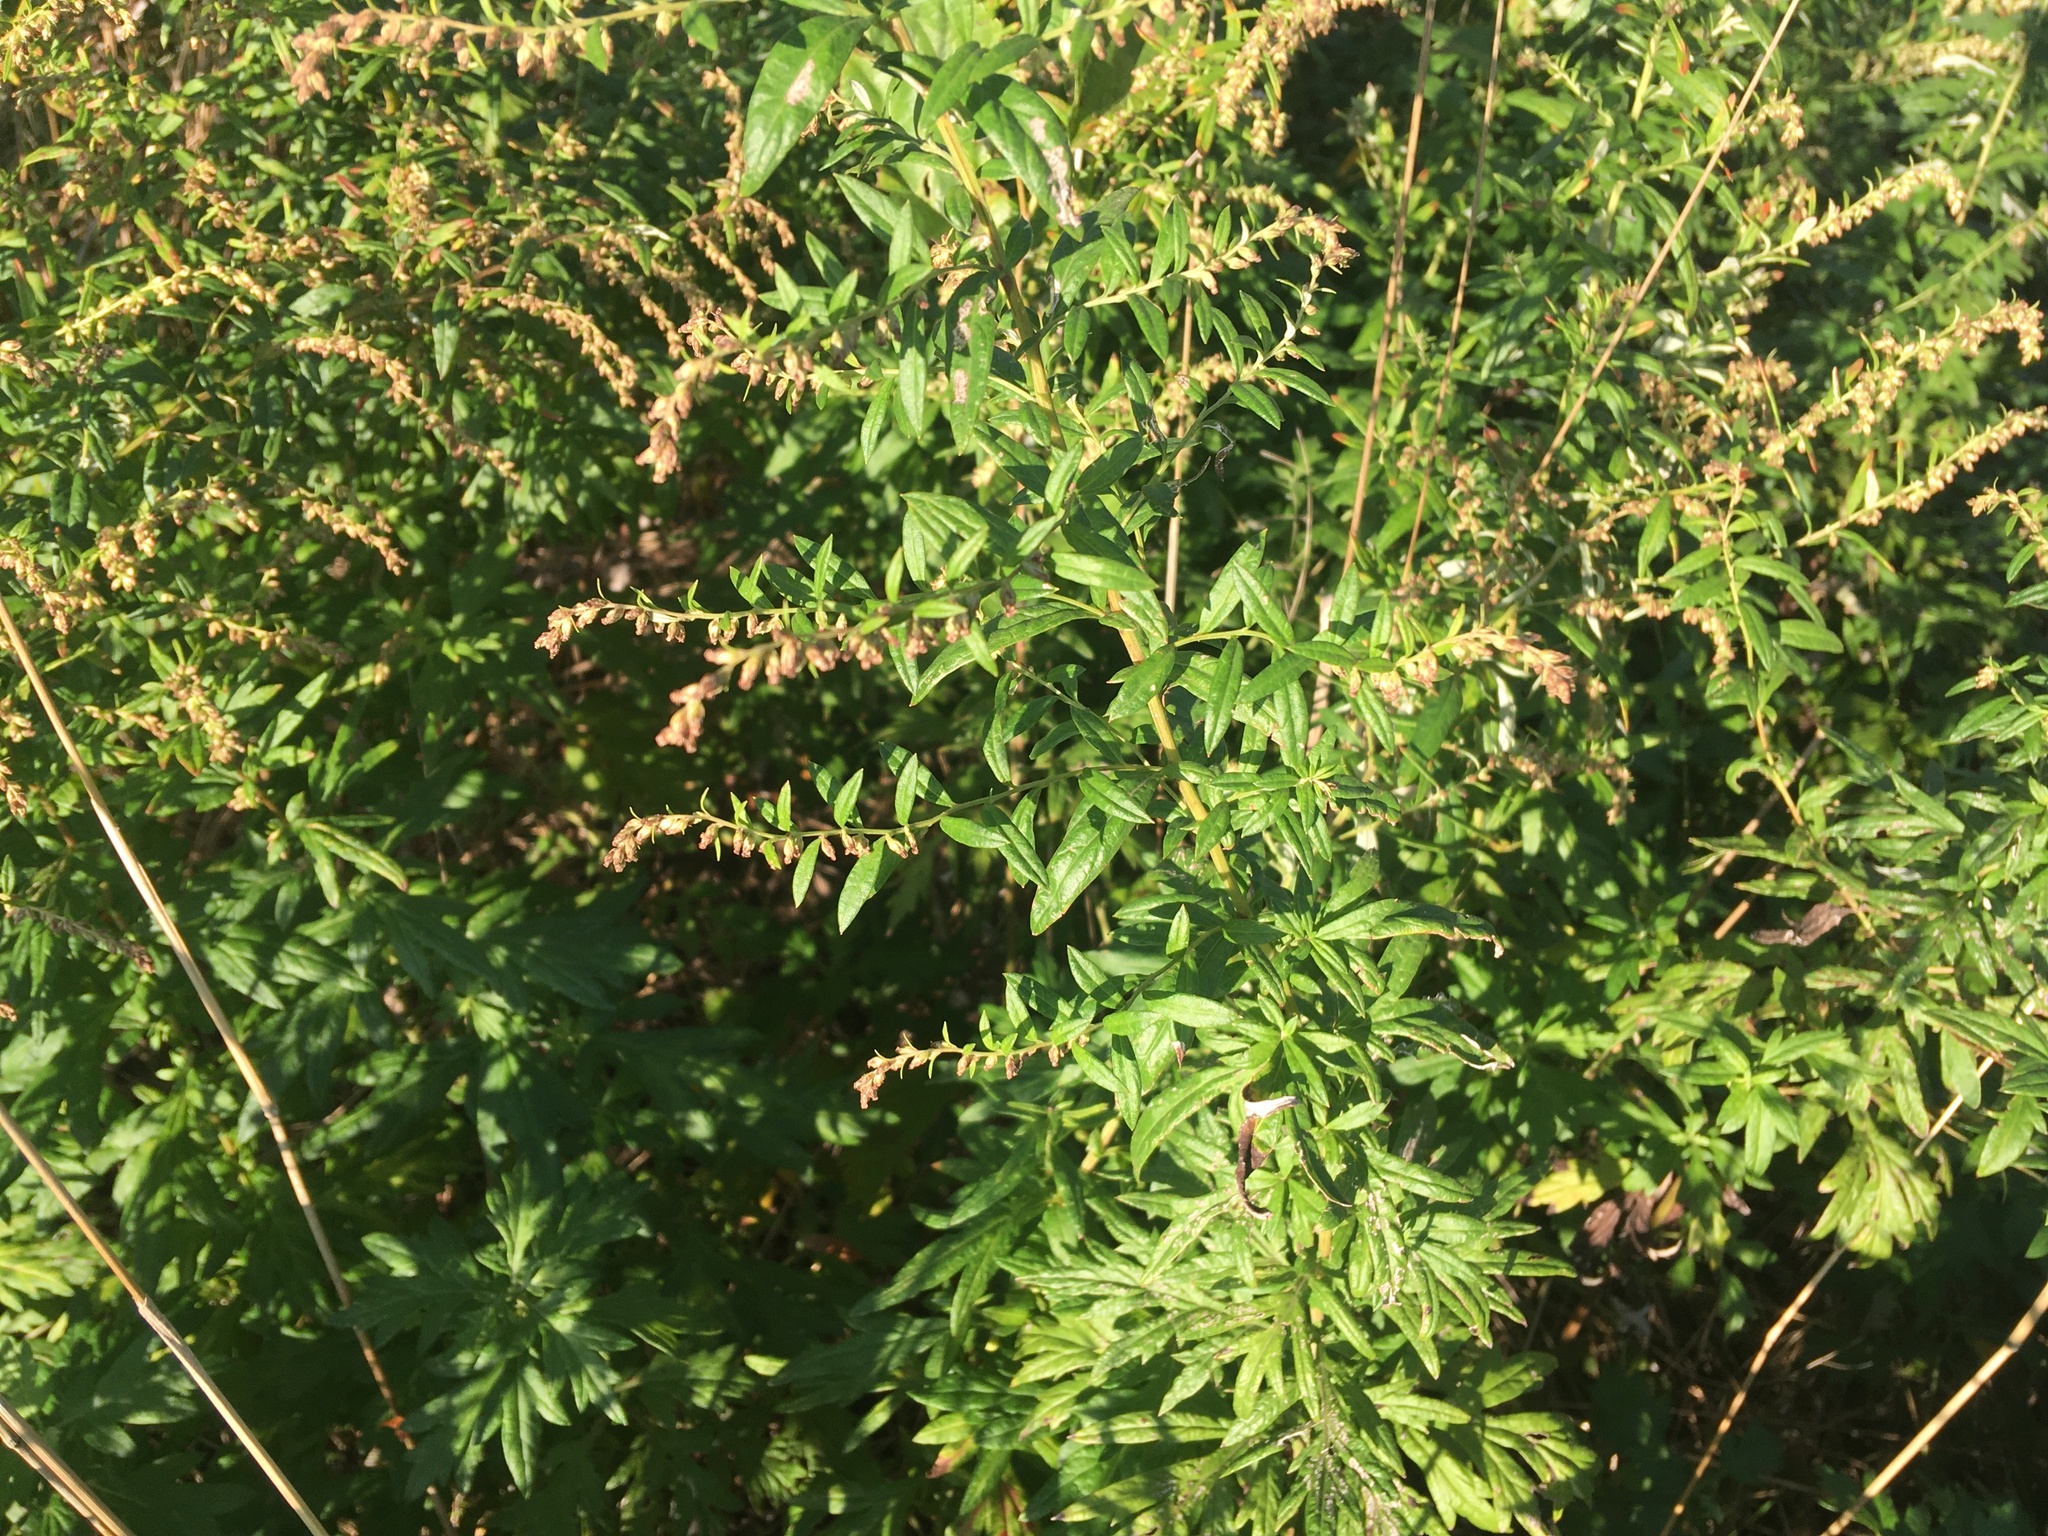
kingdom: Plantae
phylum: Tracheophyta
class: Magnoliopsida
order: Asterales
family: Asteraceae
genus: Artemisia
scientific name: Artemisia vulgaris
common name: Mugwort
